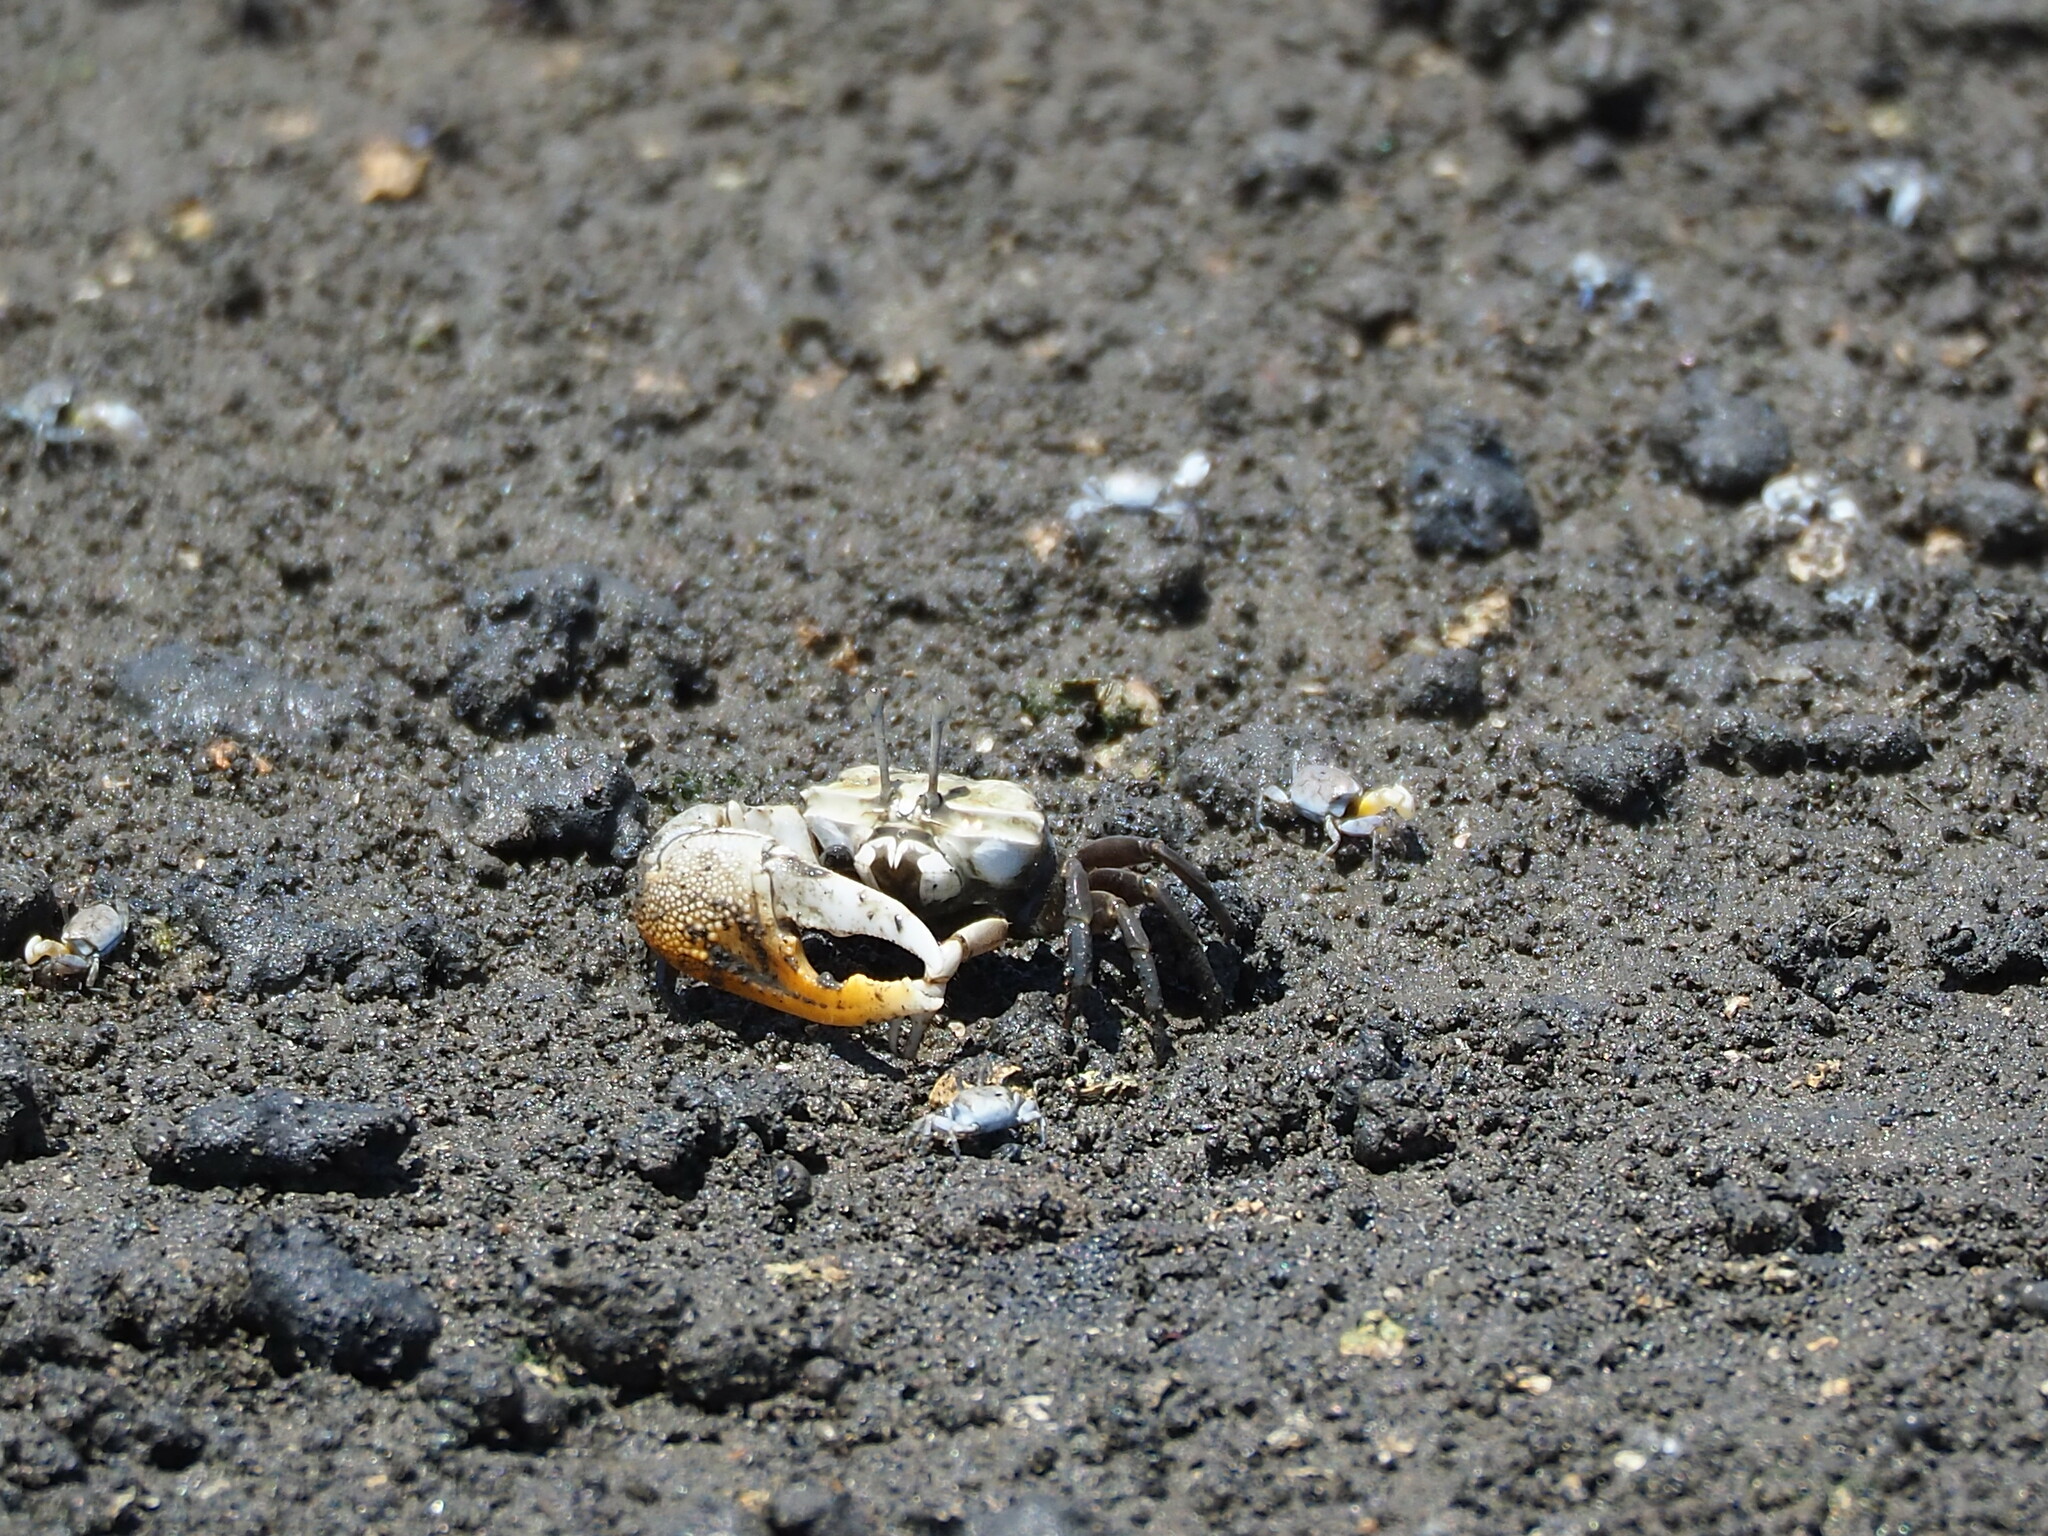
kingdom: Animalia
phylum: Arthropoda
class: Malacostraca
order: Decapoda
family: Ocypodidae
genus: Gelasimus
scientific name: Gelasimus borealis
